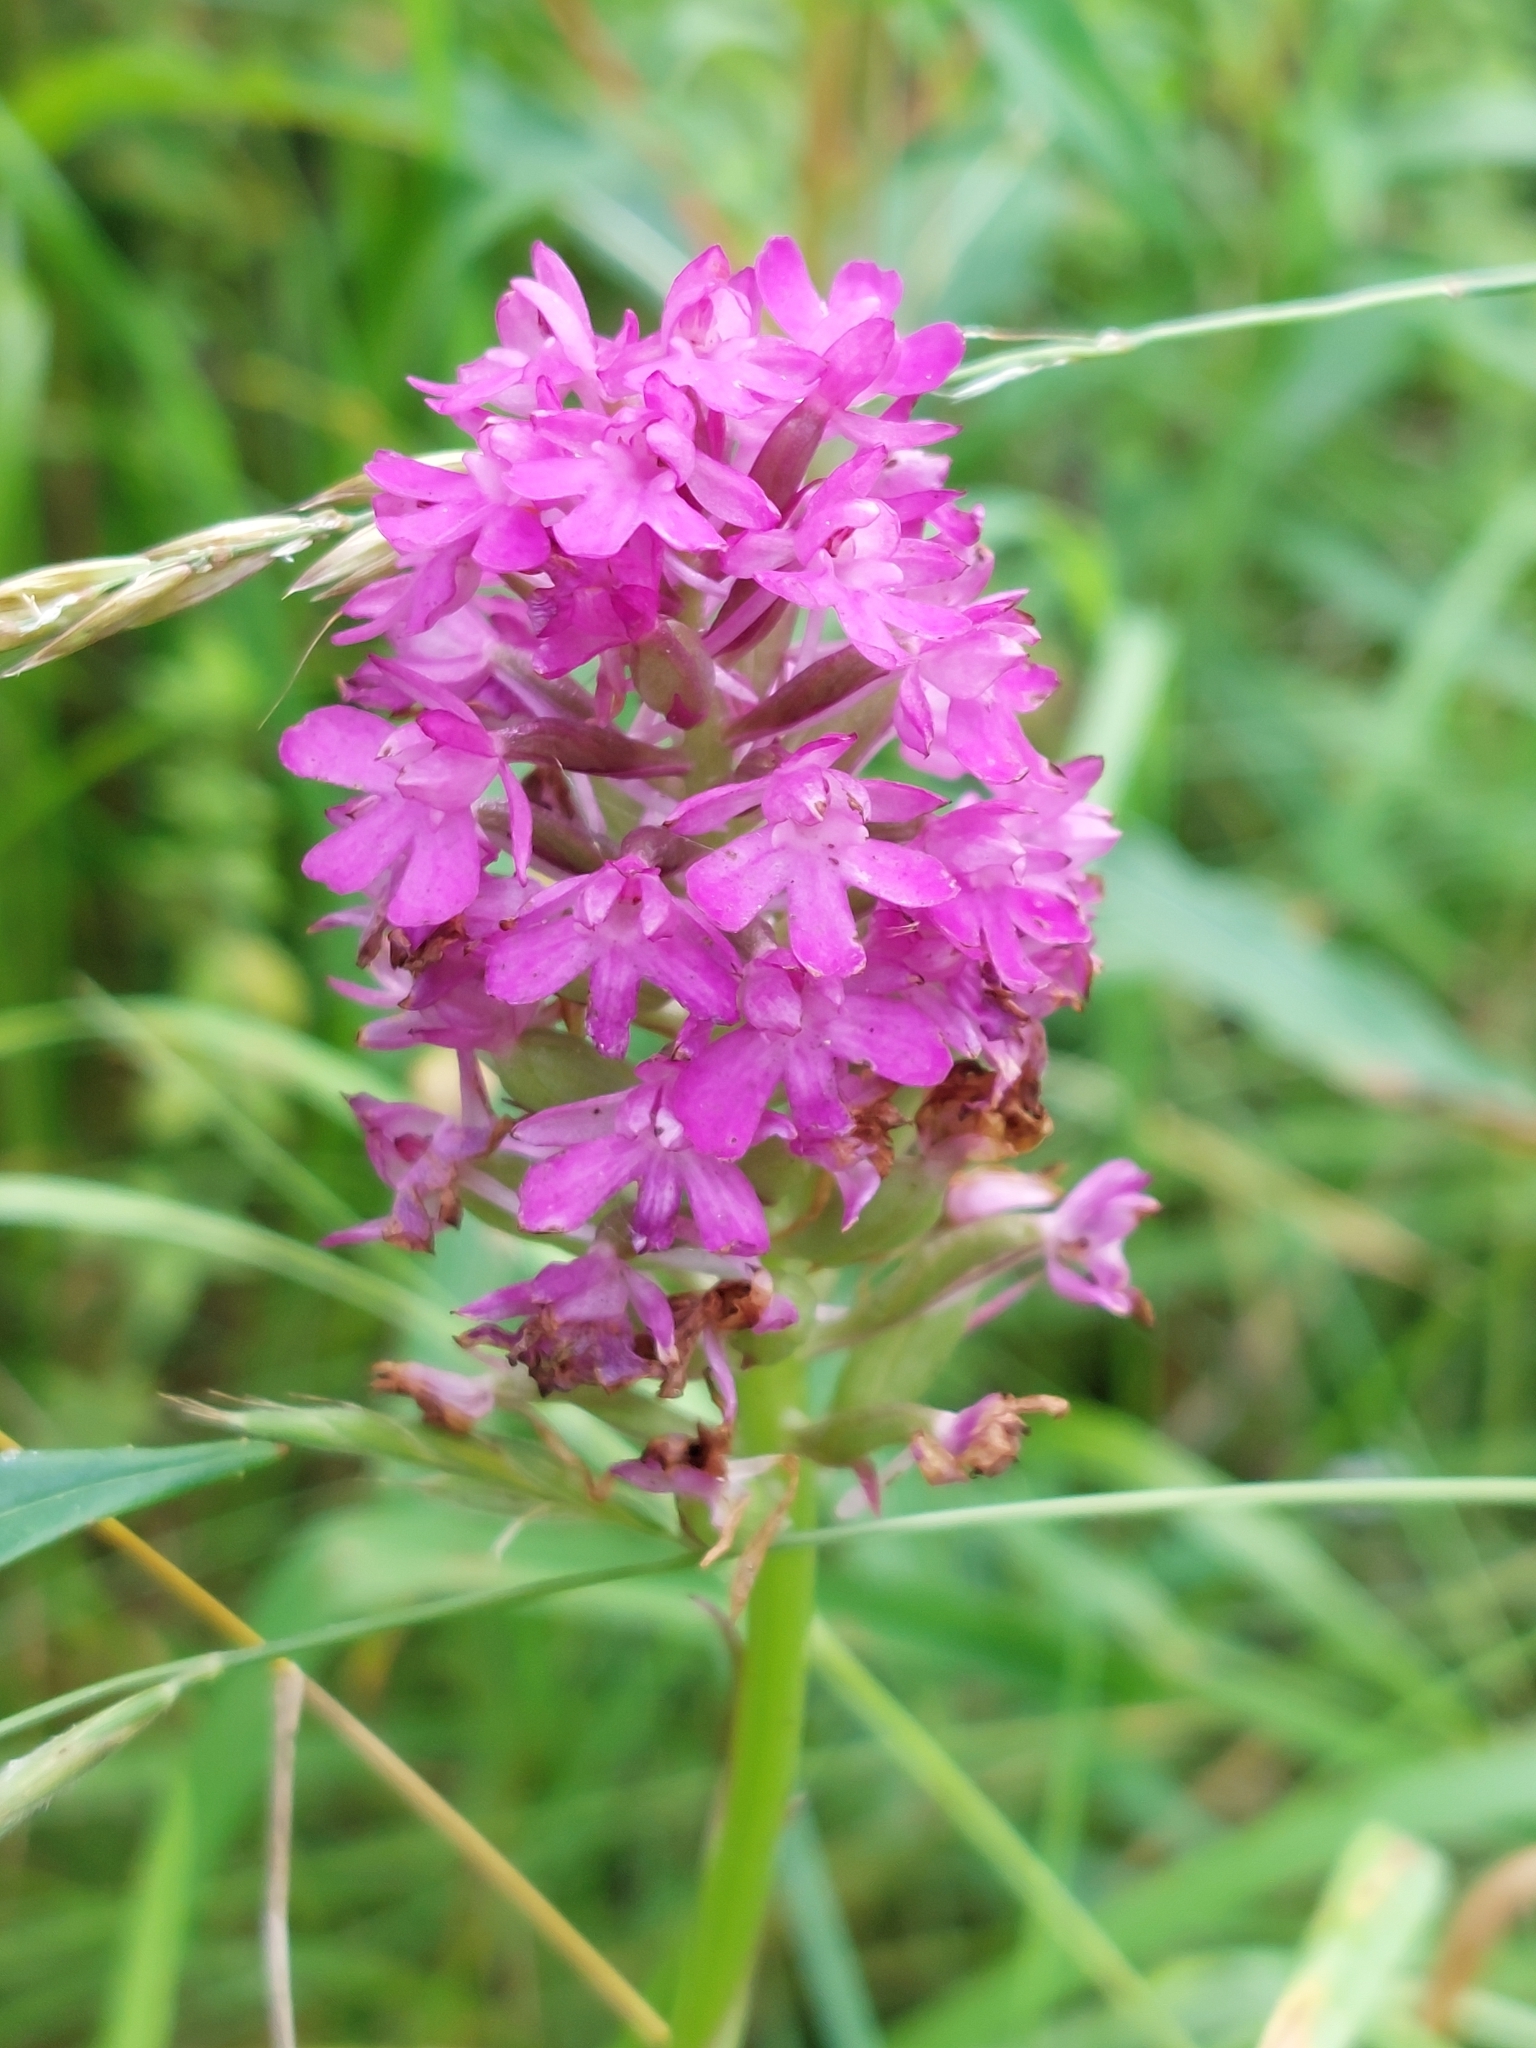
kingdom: Plantae
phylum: Tracheophyta
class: Liliopsida
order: Asparagales
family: Orchidaceae
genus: Anacamptis
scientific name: Anacamptis pyramidalis
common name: Pyramidal orchid
